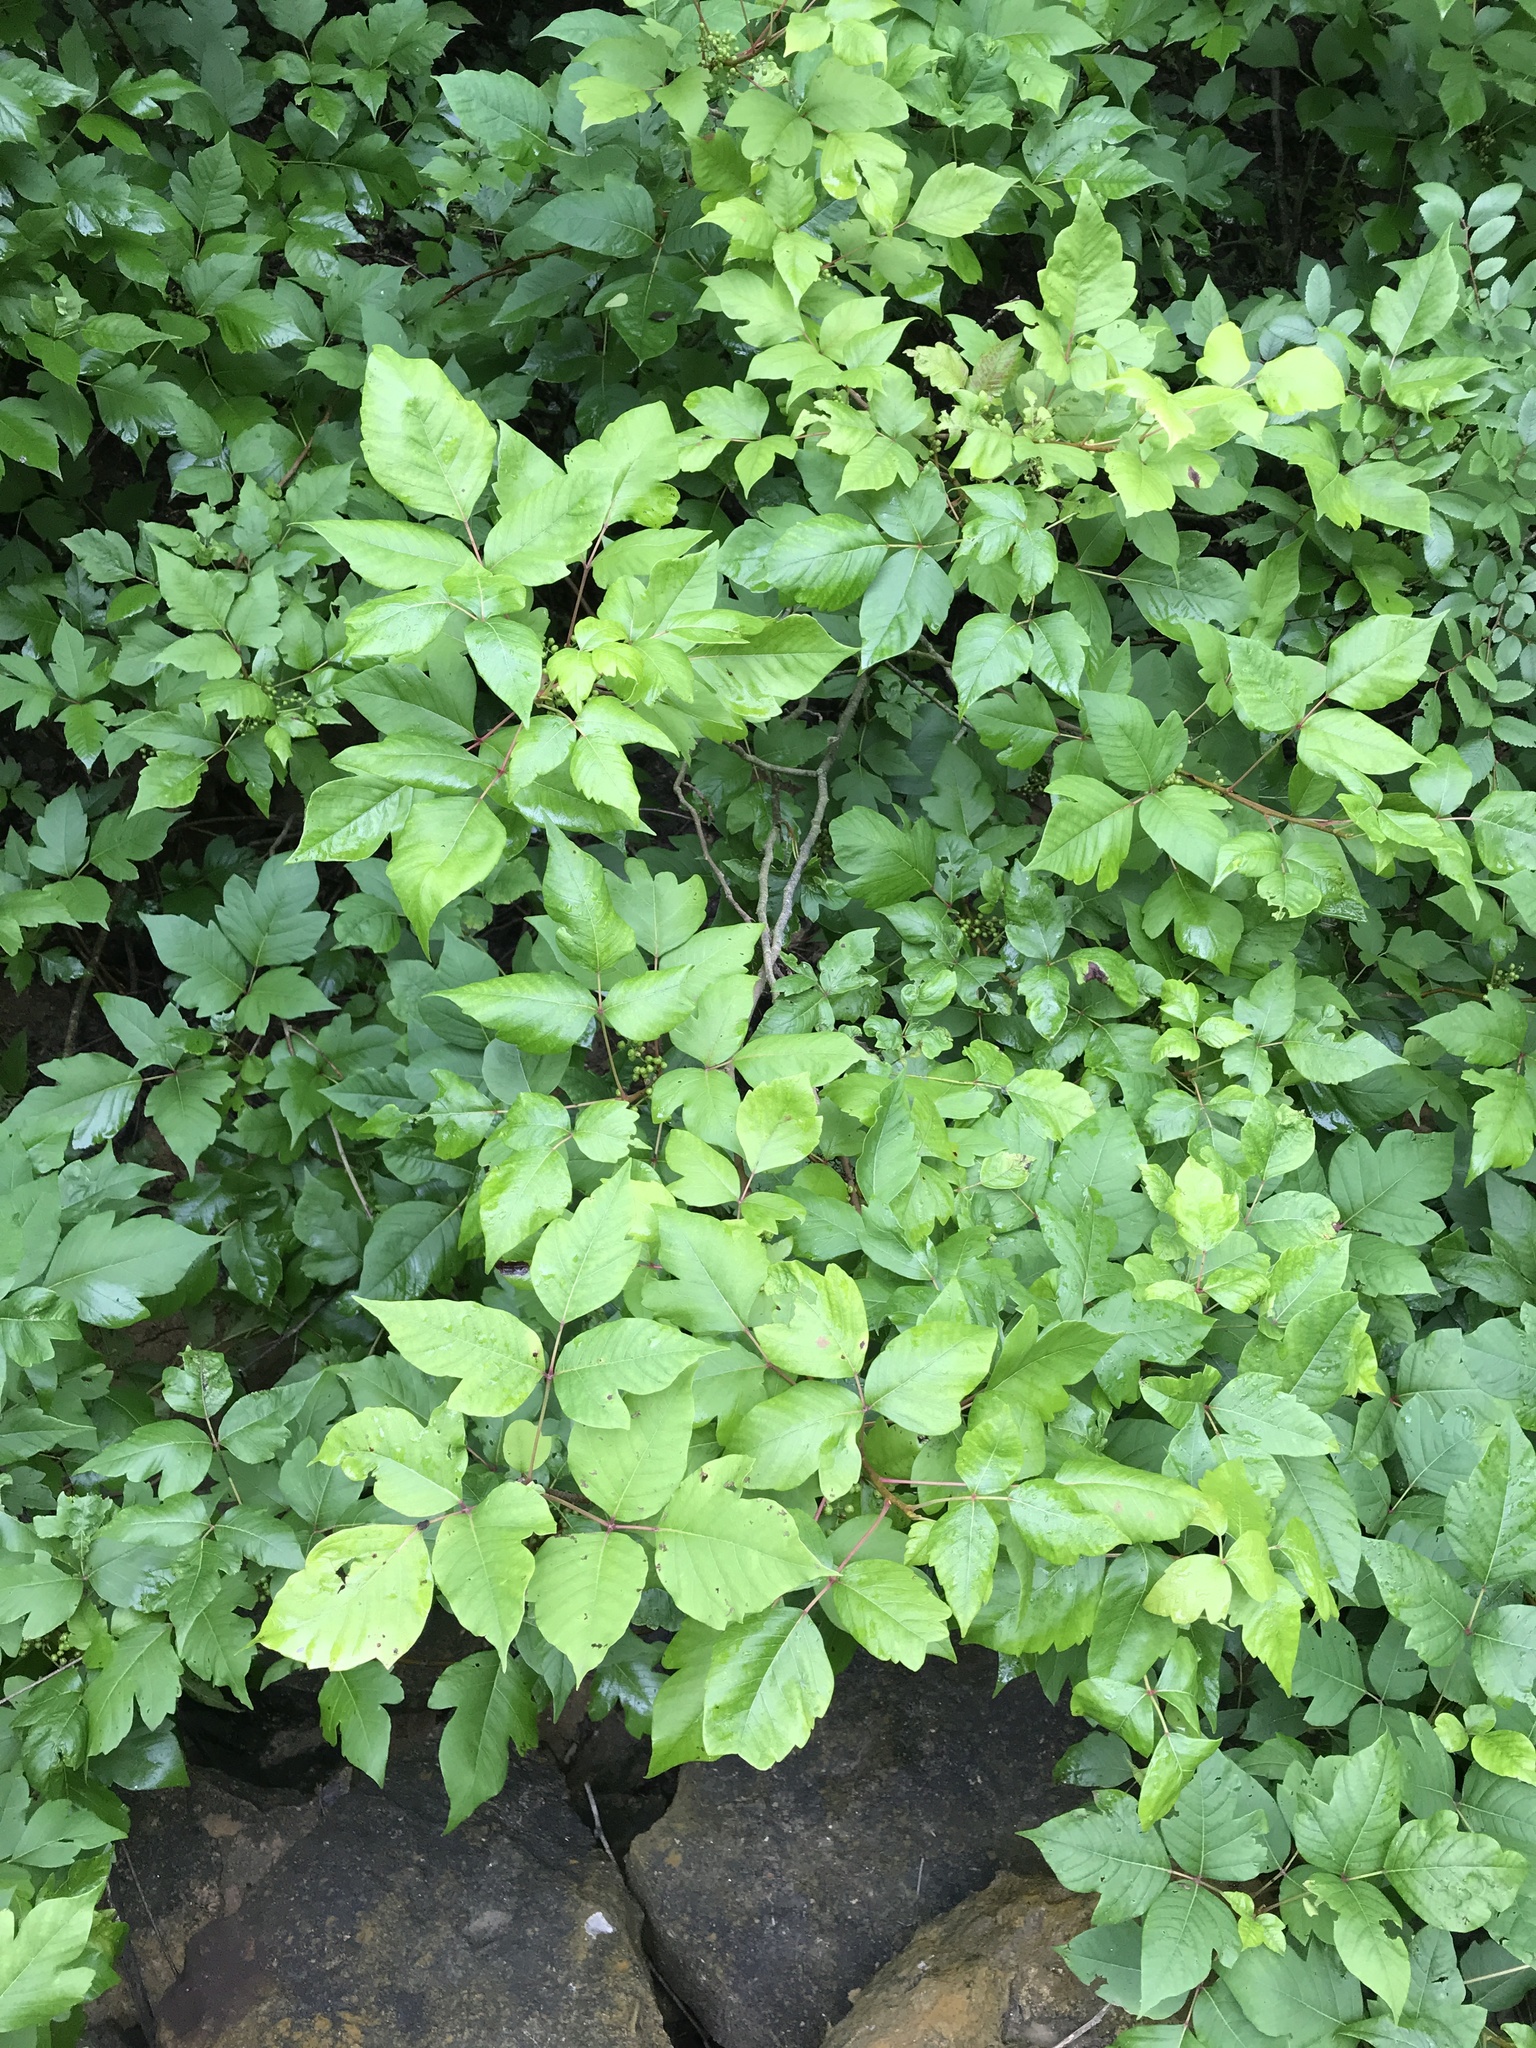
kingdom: Plantae
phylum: Tracheophyta
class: Magnoliopsida
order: Sapindales
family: Anacardiaceae
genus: Toxicodendron
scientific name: Toxicodendron radicans
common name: Poison ivy
